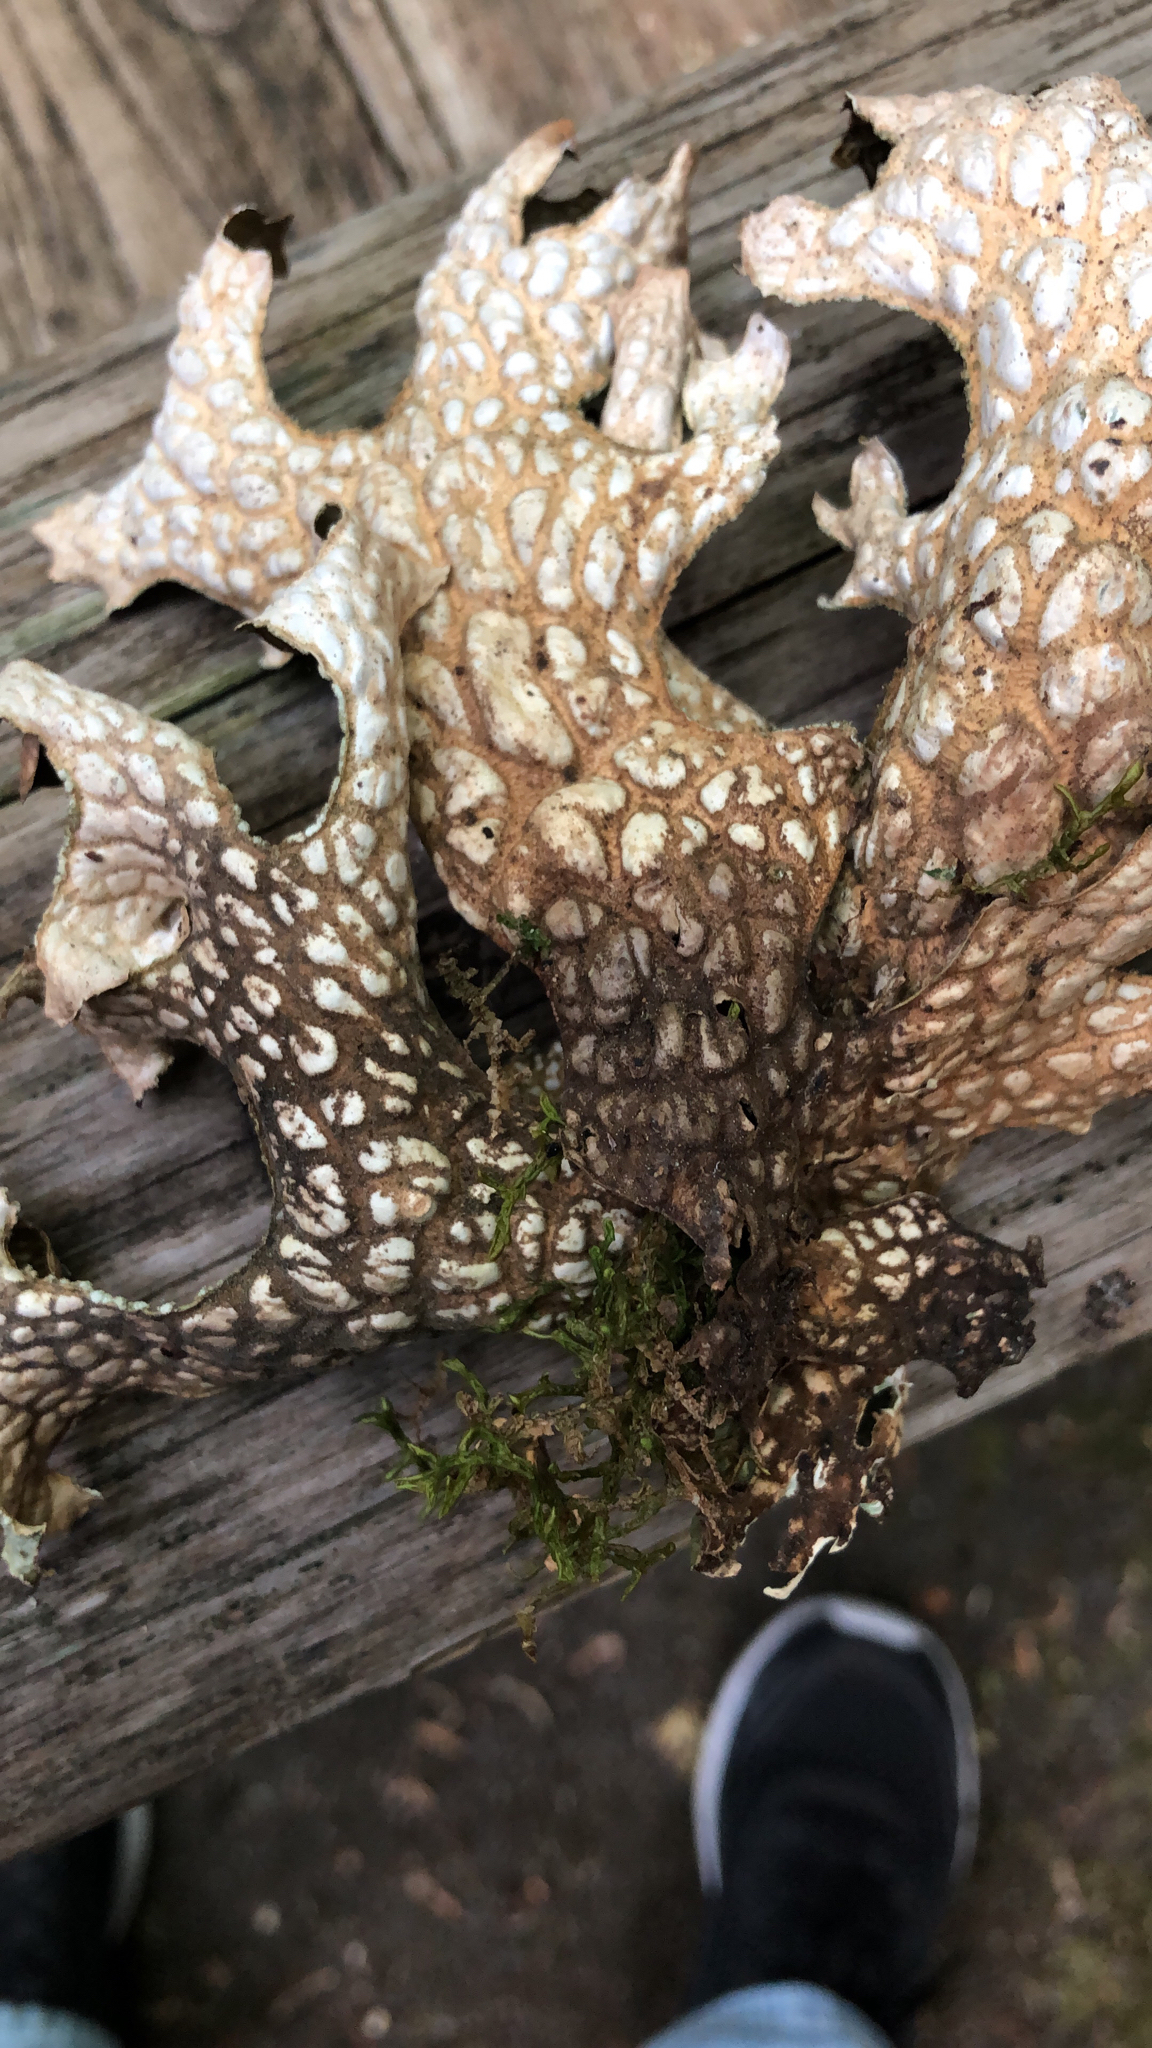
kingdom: Fungi
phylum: Ascomycota
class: Lecanoromycetes
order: Peltigerales
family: Lobariaceae
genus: Lobaria
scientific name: Lobaria pulmonaria
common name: Lungwort
